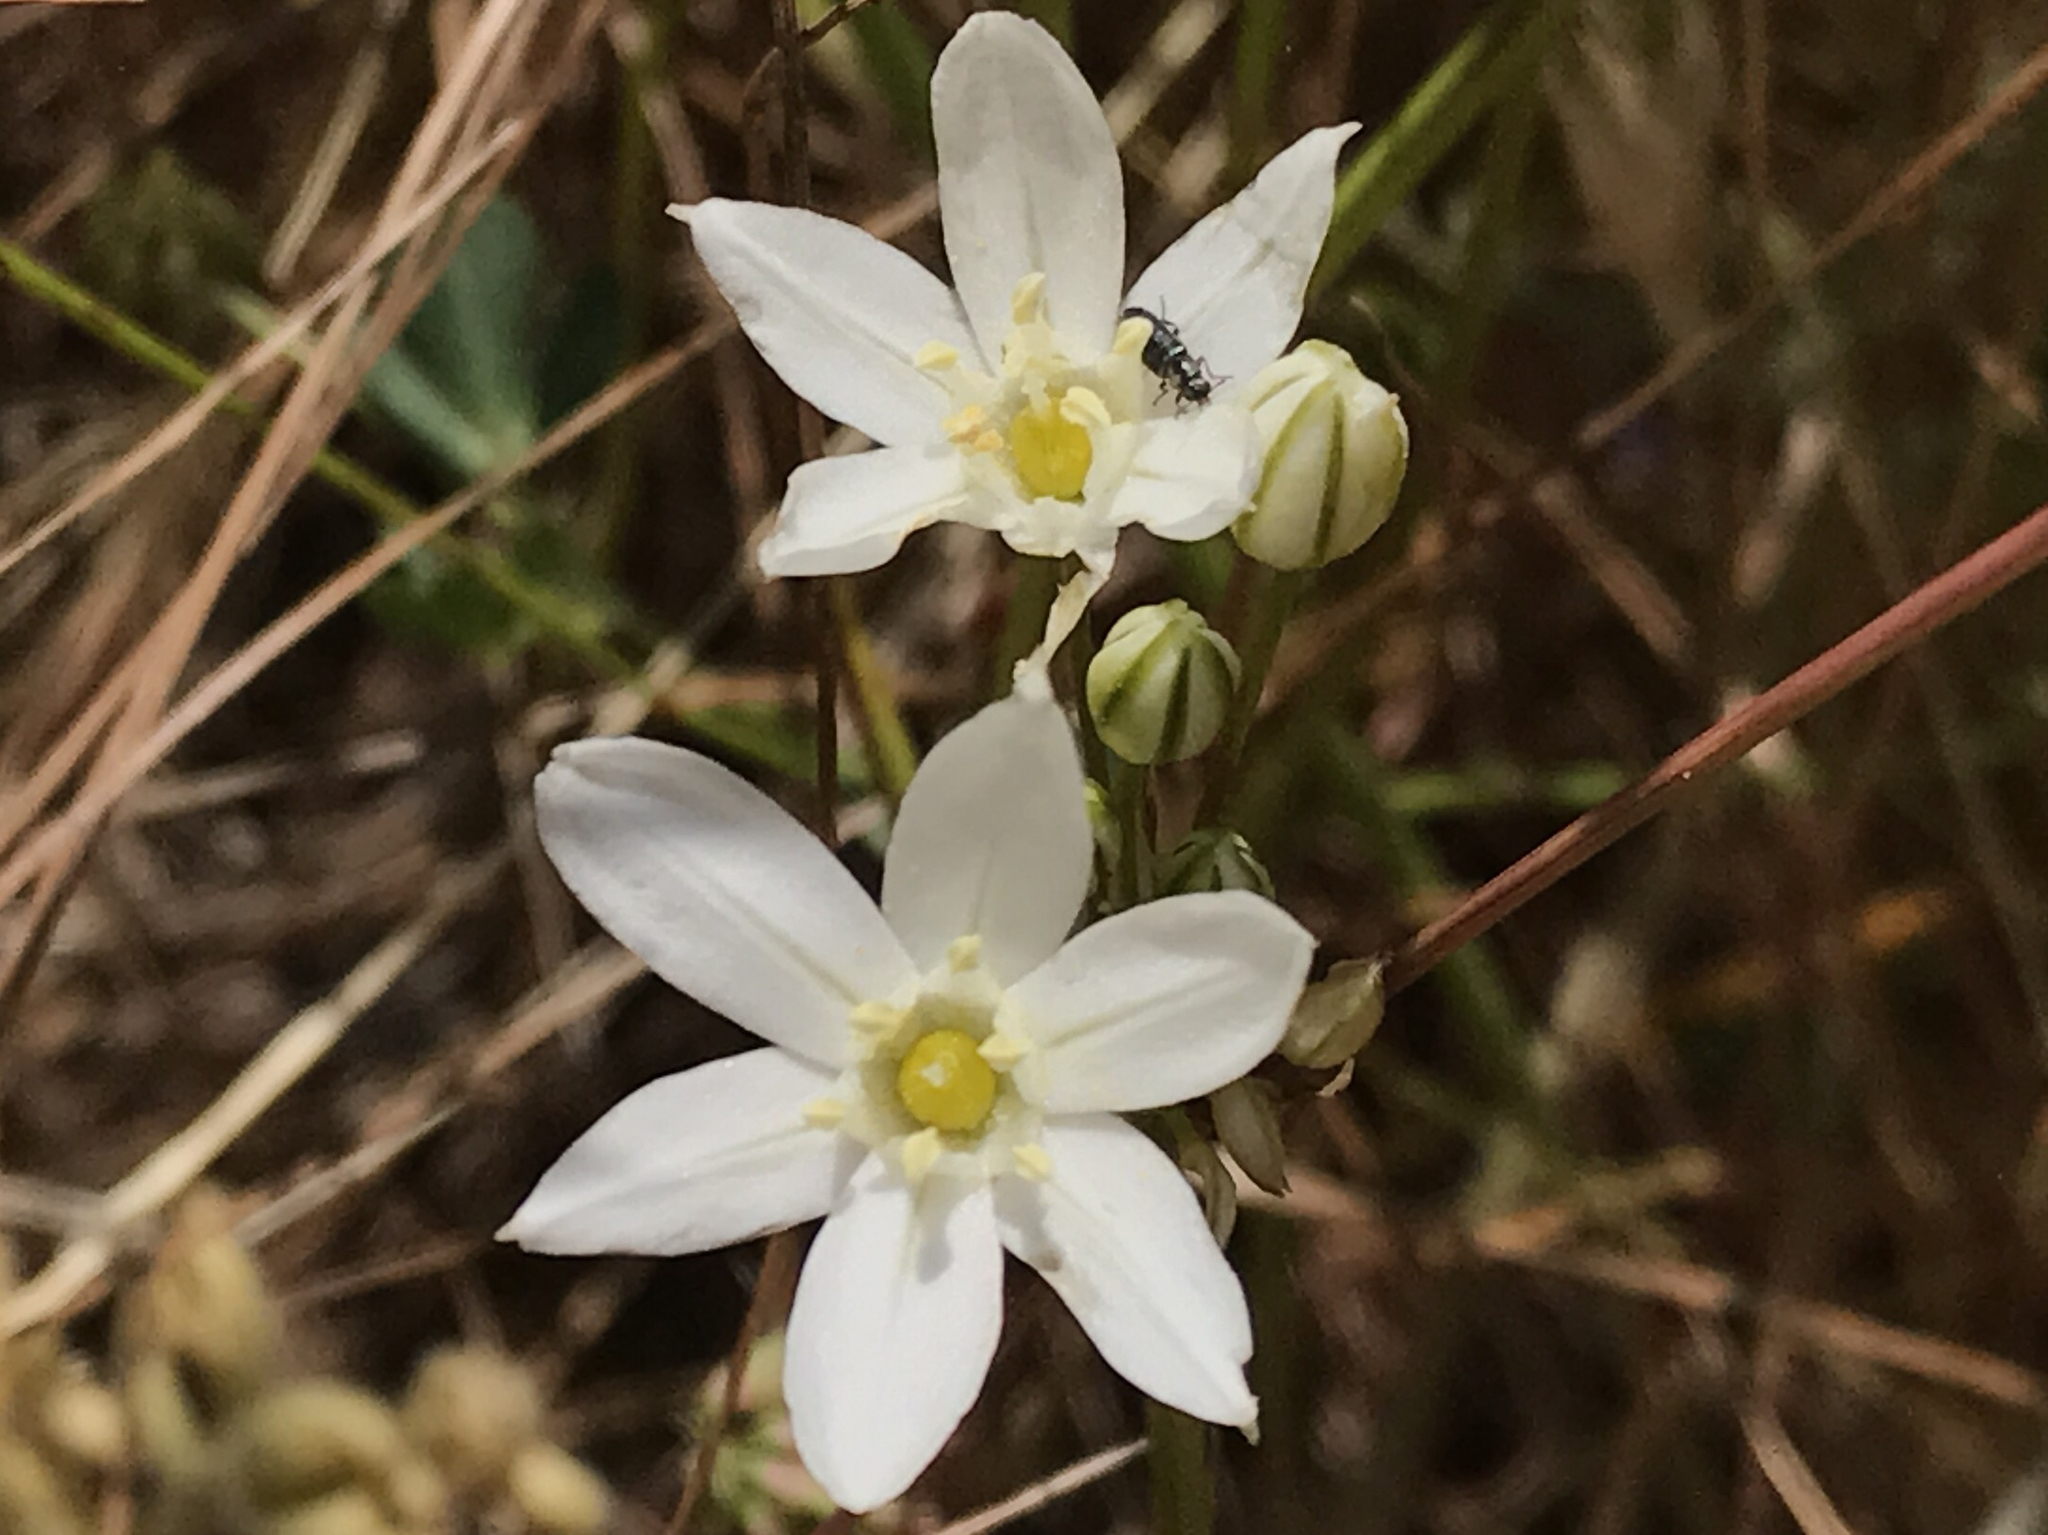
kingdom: Plantae
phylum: Tracheophyta
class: Liliopsida
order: Asparagales
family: Asparagaceae
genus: Triteleia
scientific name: Triteleia hyacinthina
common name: White brodiaea
